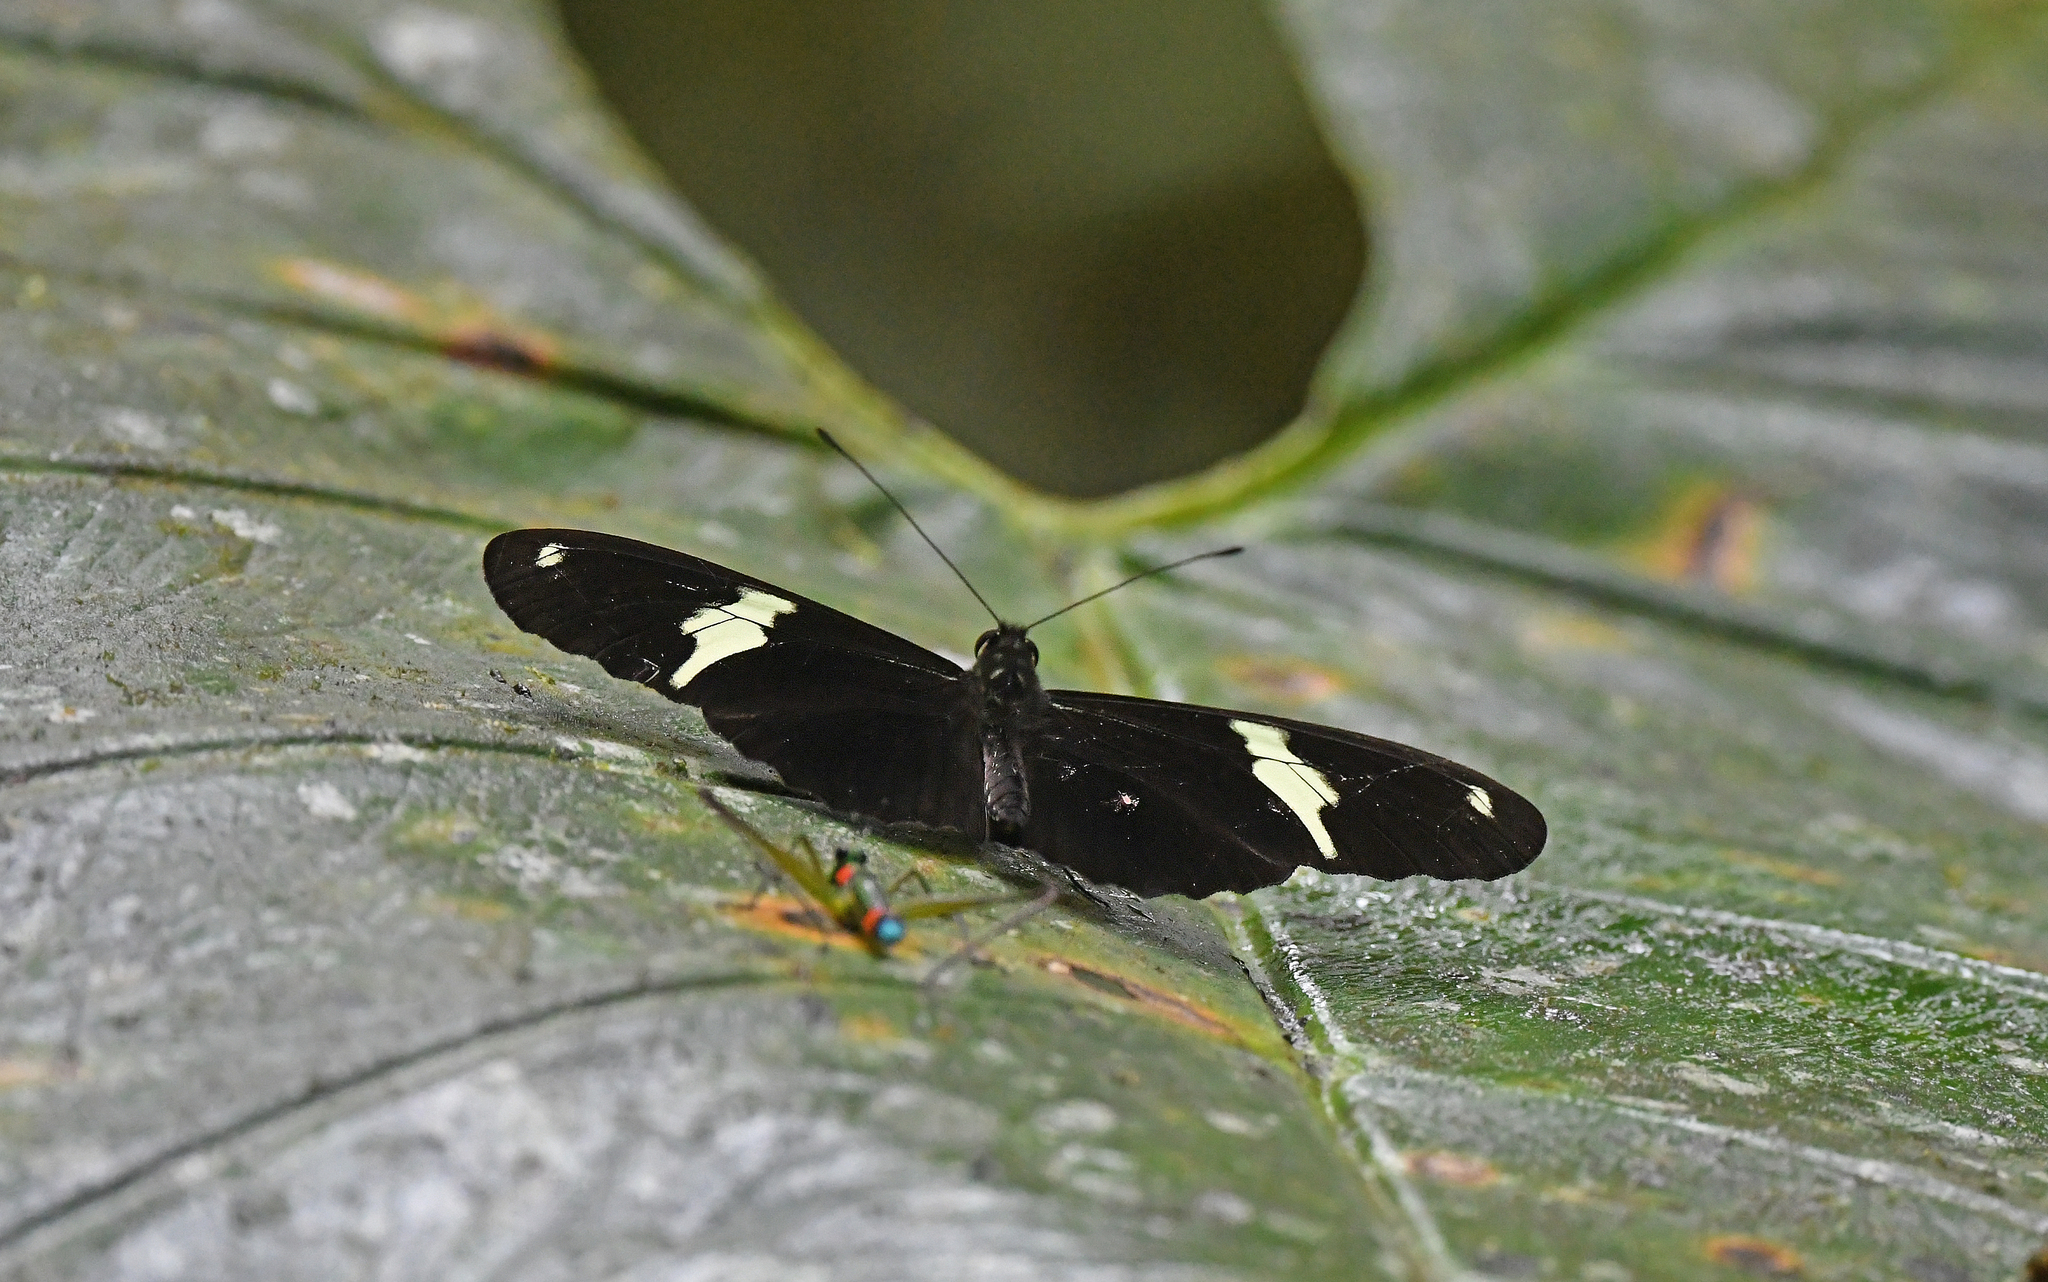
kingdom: Animalia
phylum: Arthropoda
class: Insecta
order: Lepidoptera
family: Nymphalidae
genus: Heliconius
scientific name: Heliconius clysonymus
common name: Clysonymus longwing
